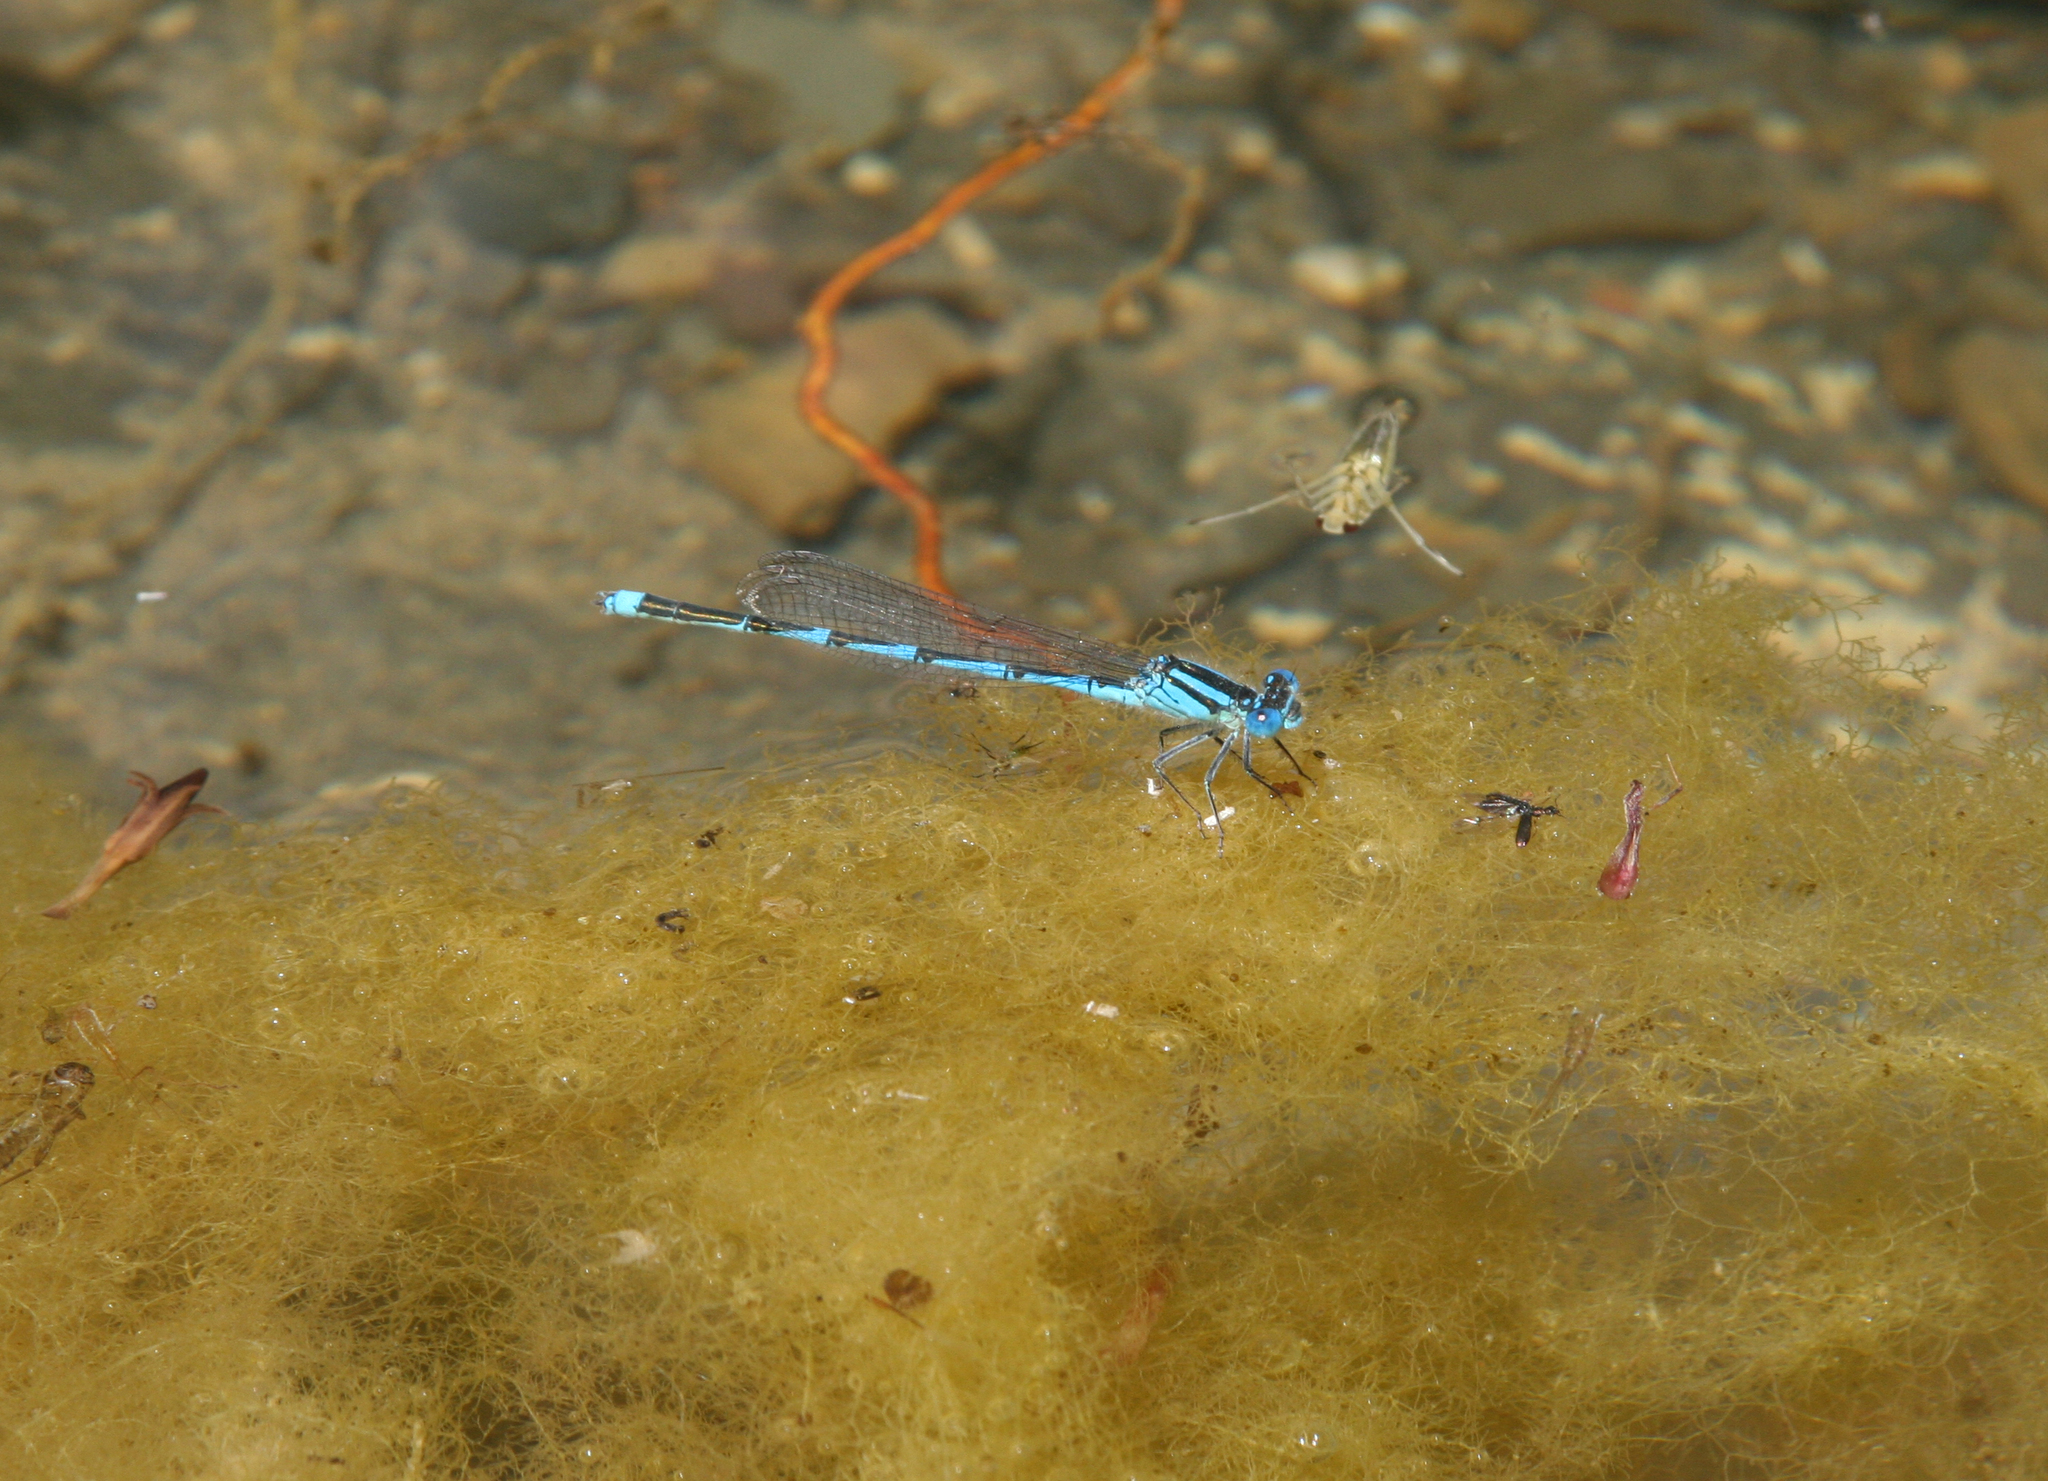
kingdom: Animalia
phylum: Arthropoda
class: Insecta
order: Odonata
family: Coenagrionidae
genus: Erythromma
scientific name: Erythromma lindenii
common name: Blue-eye
